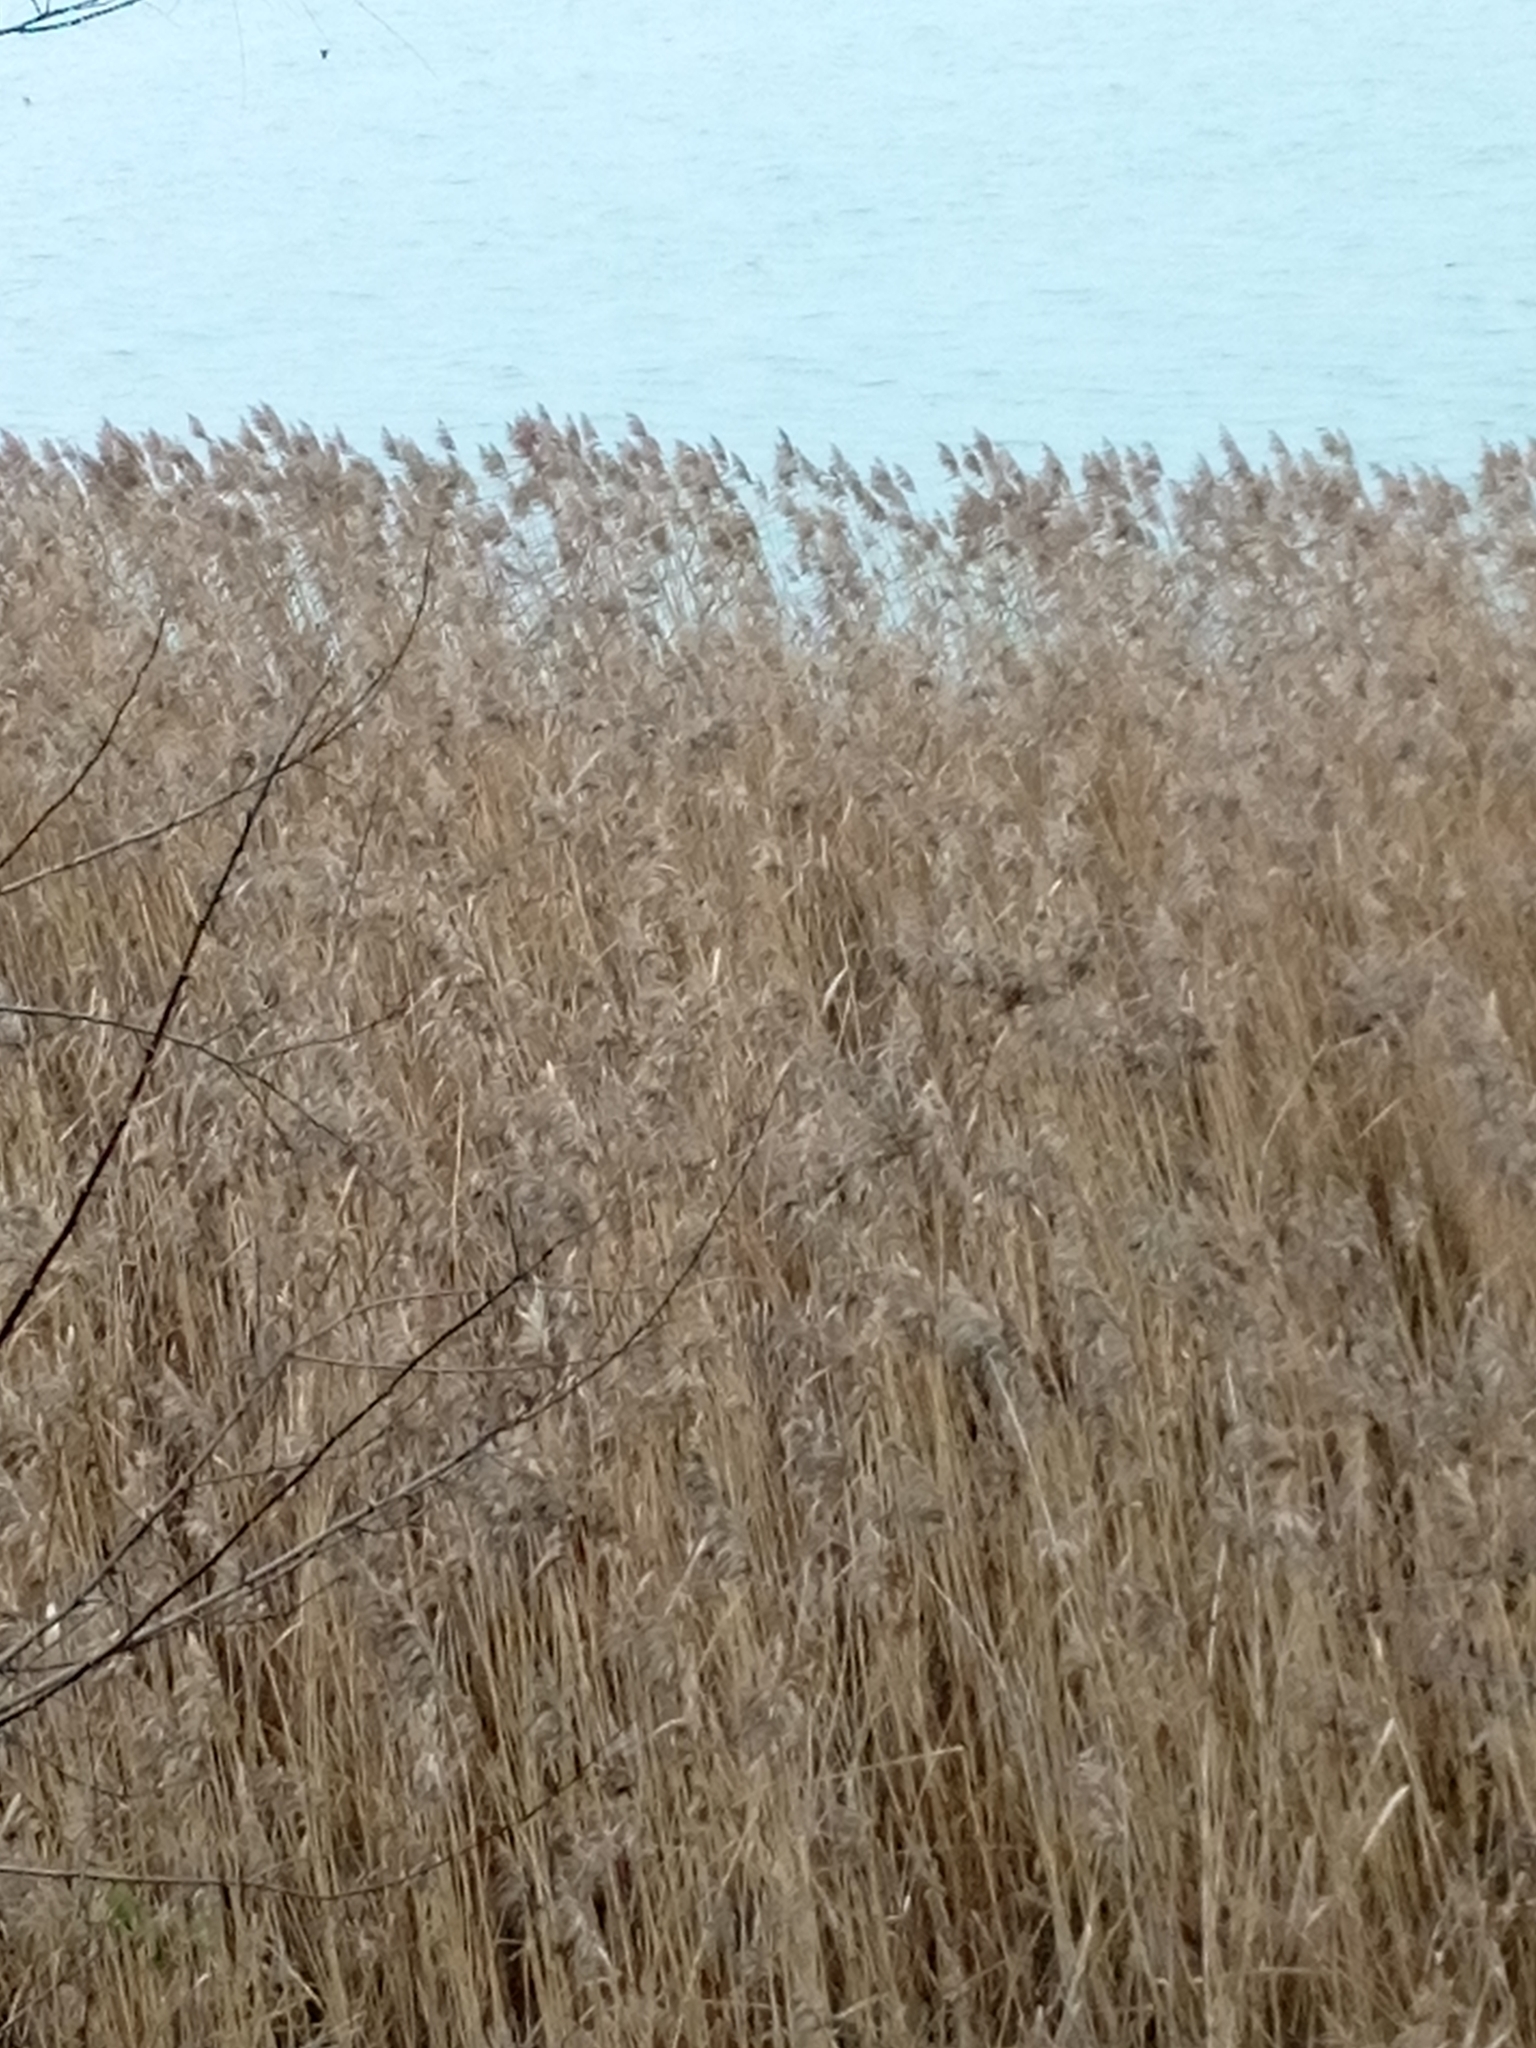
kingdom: Plantae
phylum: Tracheophyta
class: Liliopsida
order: Poales
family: Poaceae
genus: Phragmites
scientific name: Phragmites australis
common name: Common reed
